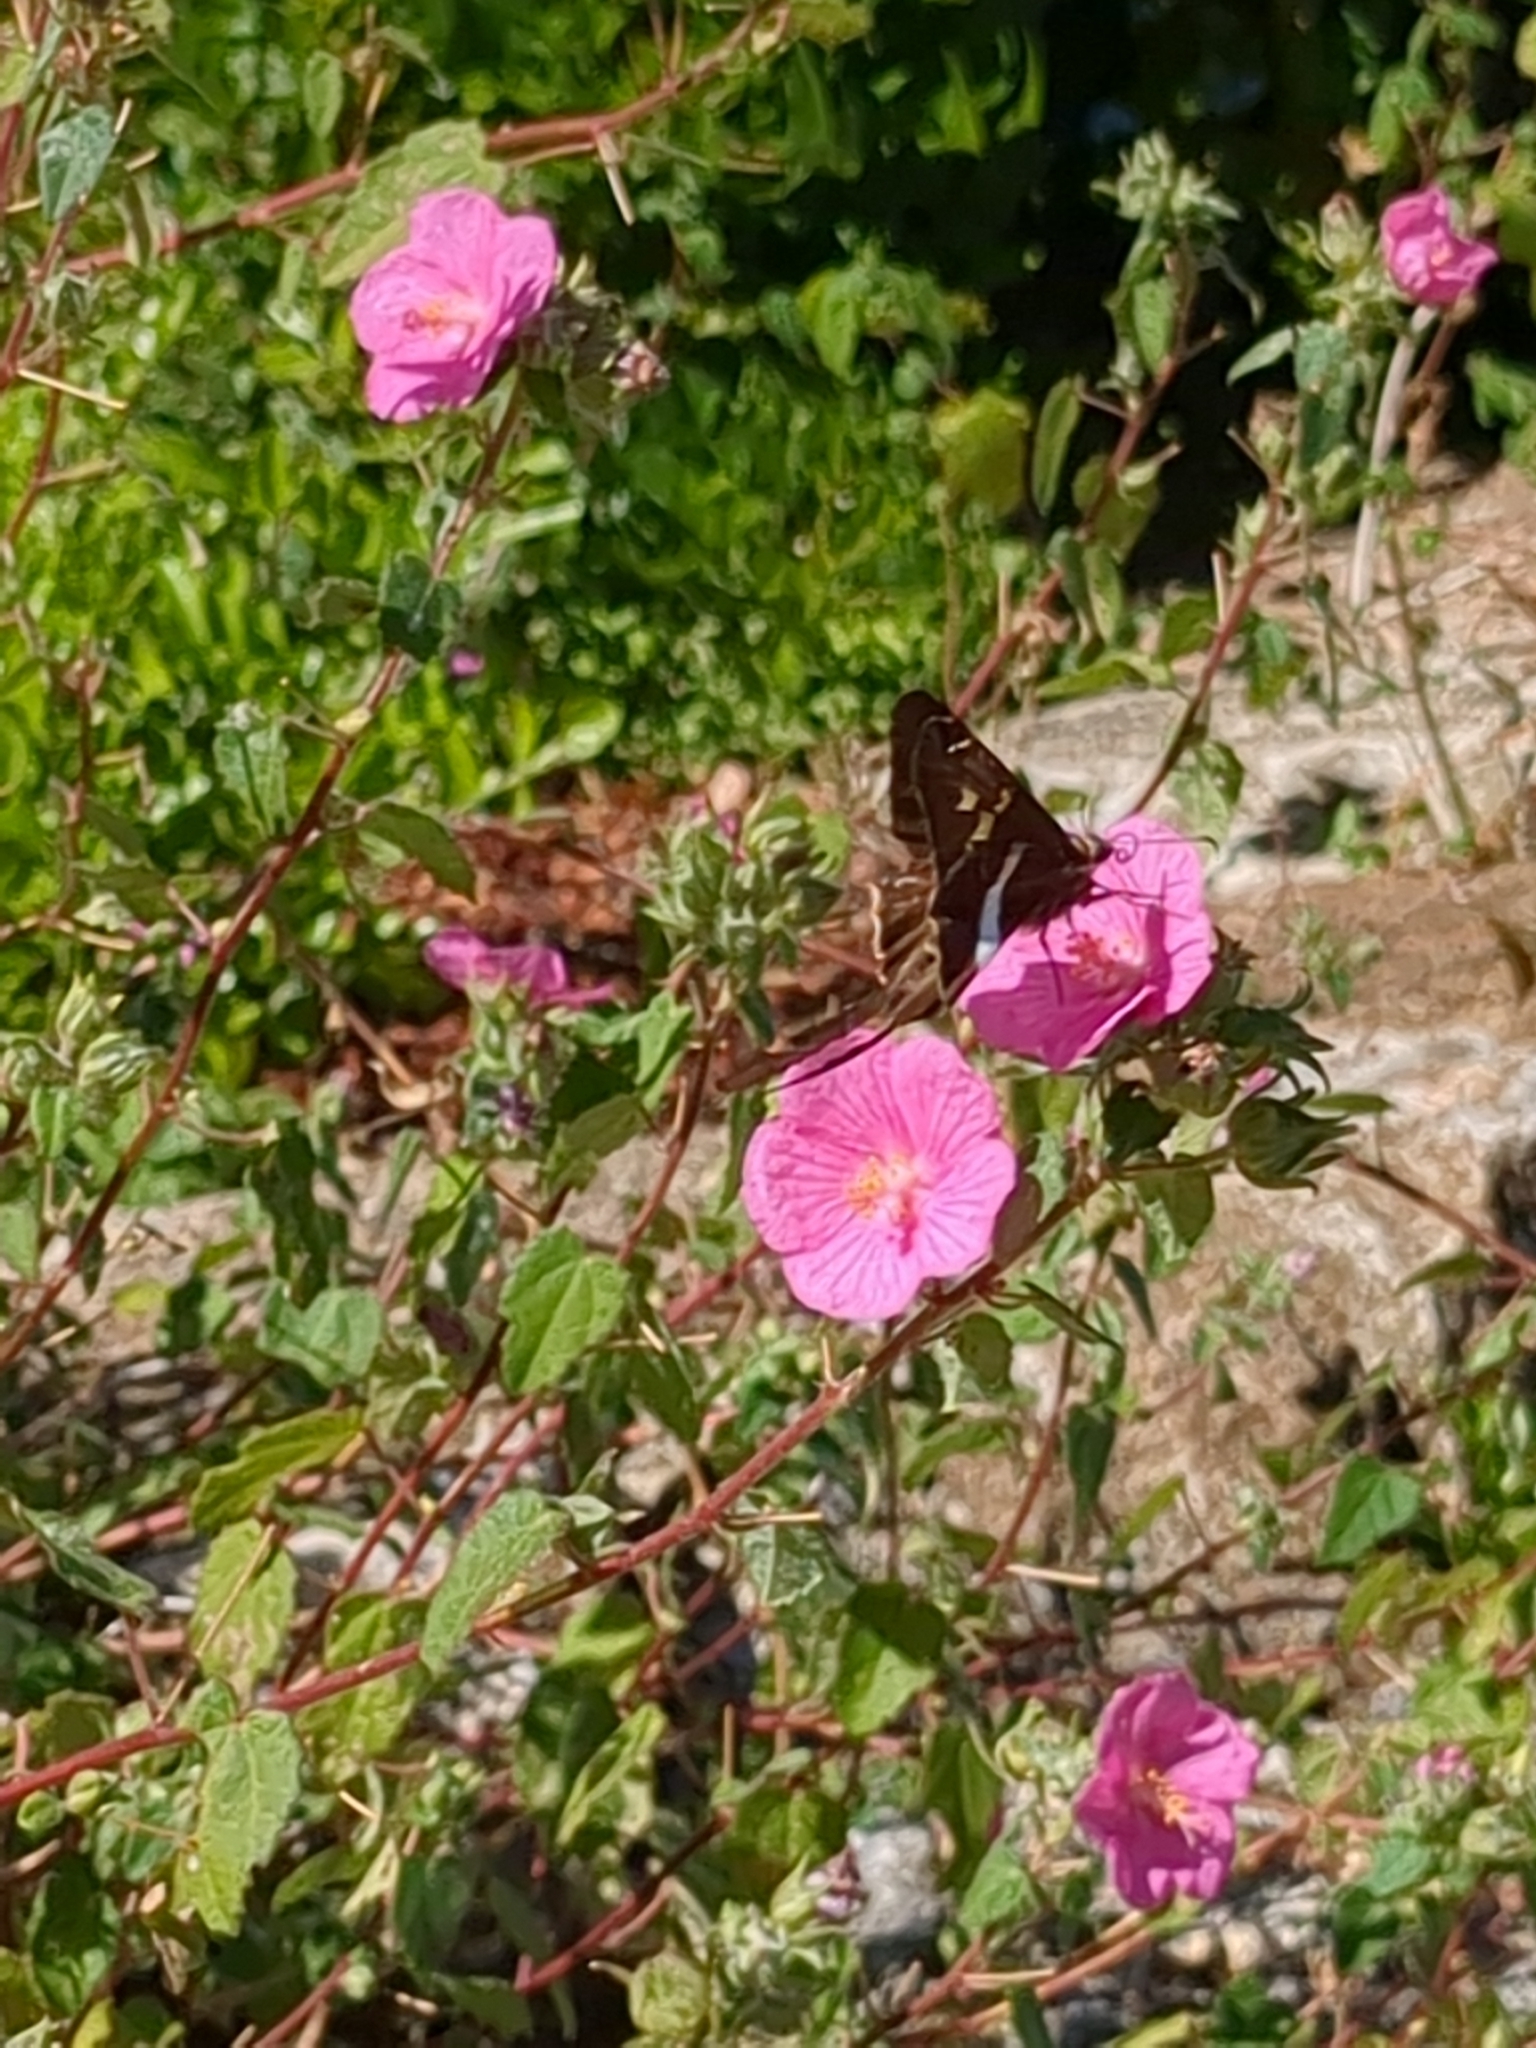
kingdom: Animalia
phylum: Arthropoda
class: Insecta
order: Lepidoptera
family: Hesperiidae
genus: Chioides
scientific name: Chioides catillus
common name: Silverbanded skipper
